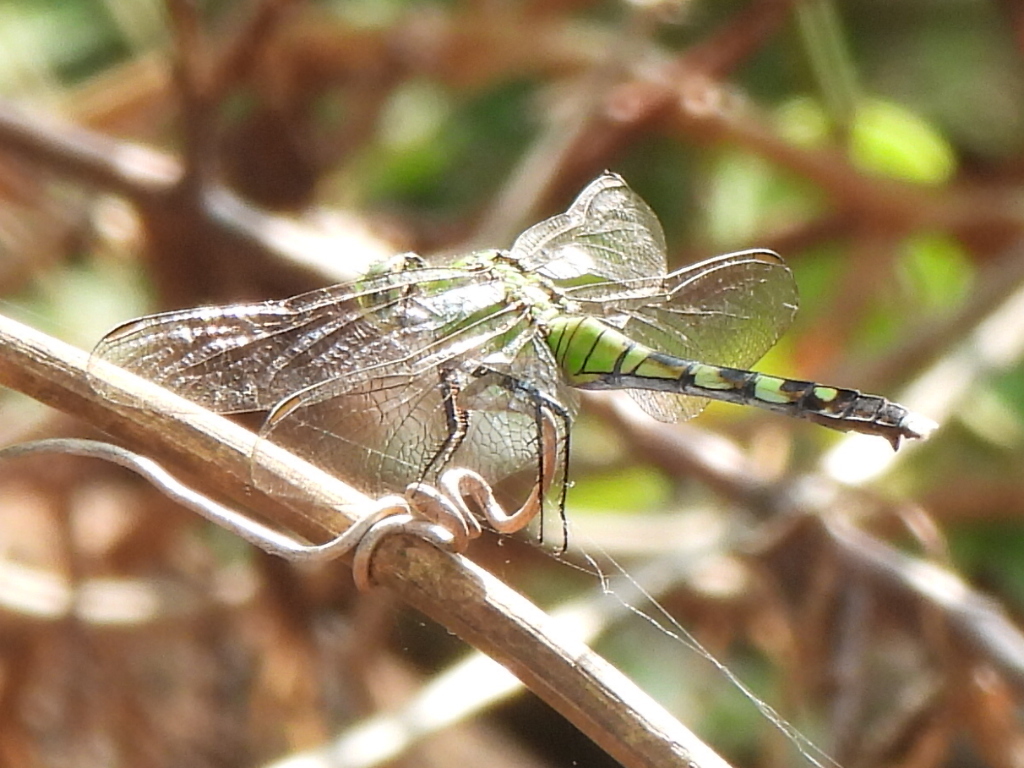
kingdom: Animalia
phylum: Arthropoda
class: Insecta
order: Odonata
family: Libellulidae
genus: Erythemis
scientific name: Erythemis simplicicollis
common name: Eastern pondhawk
